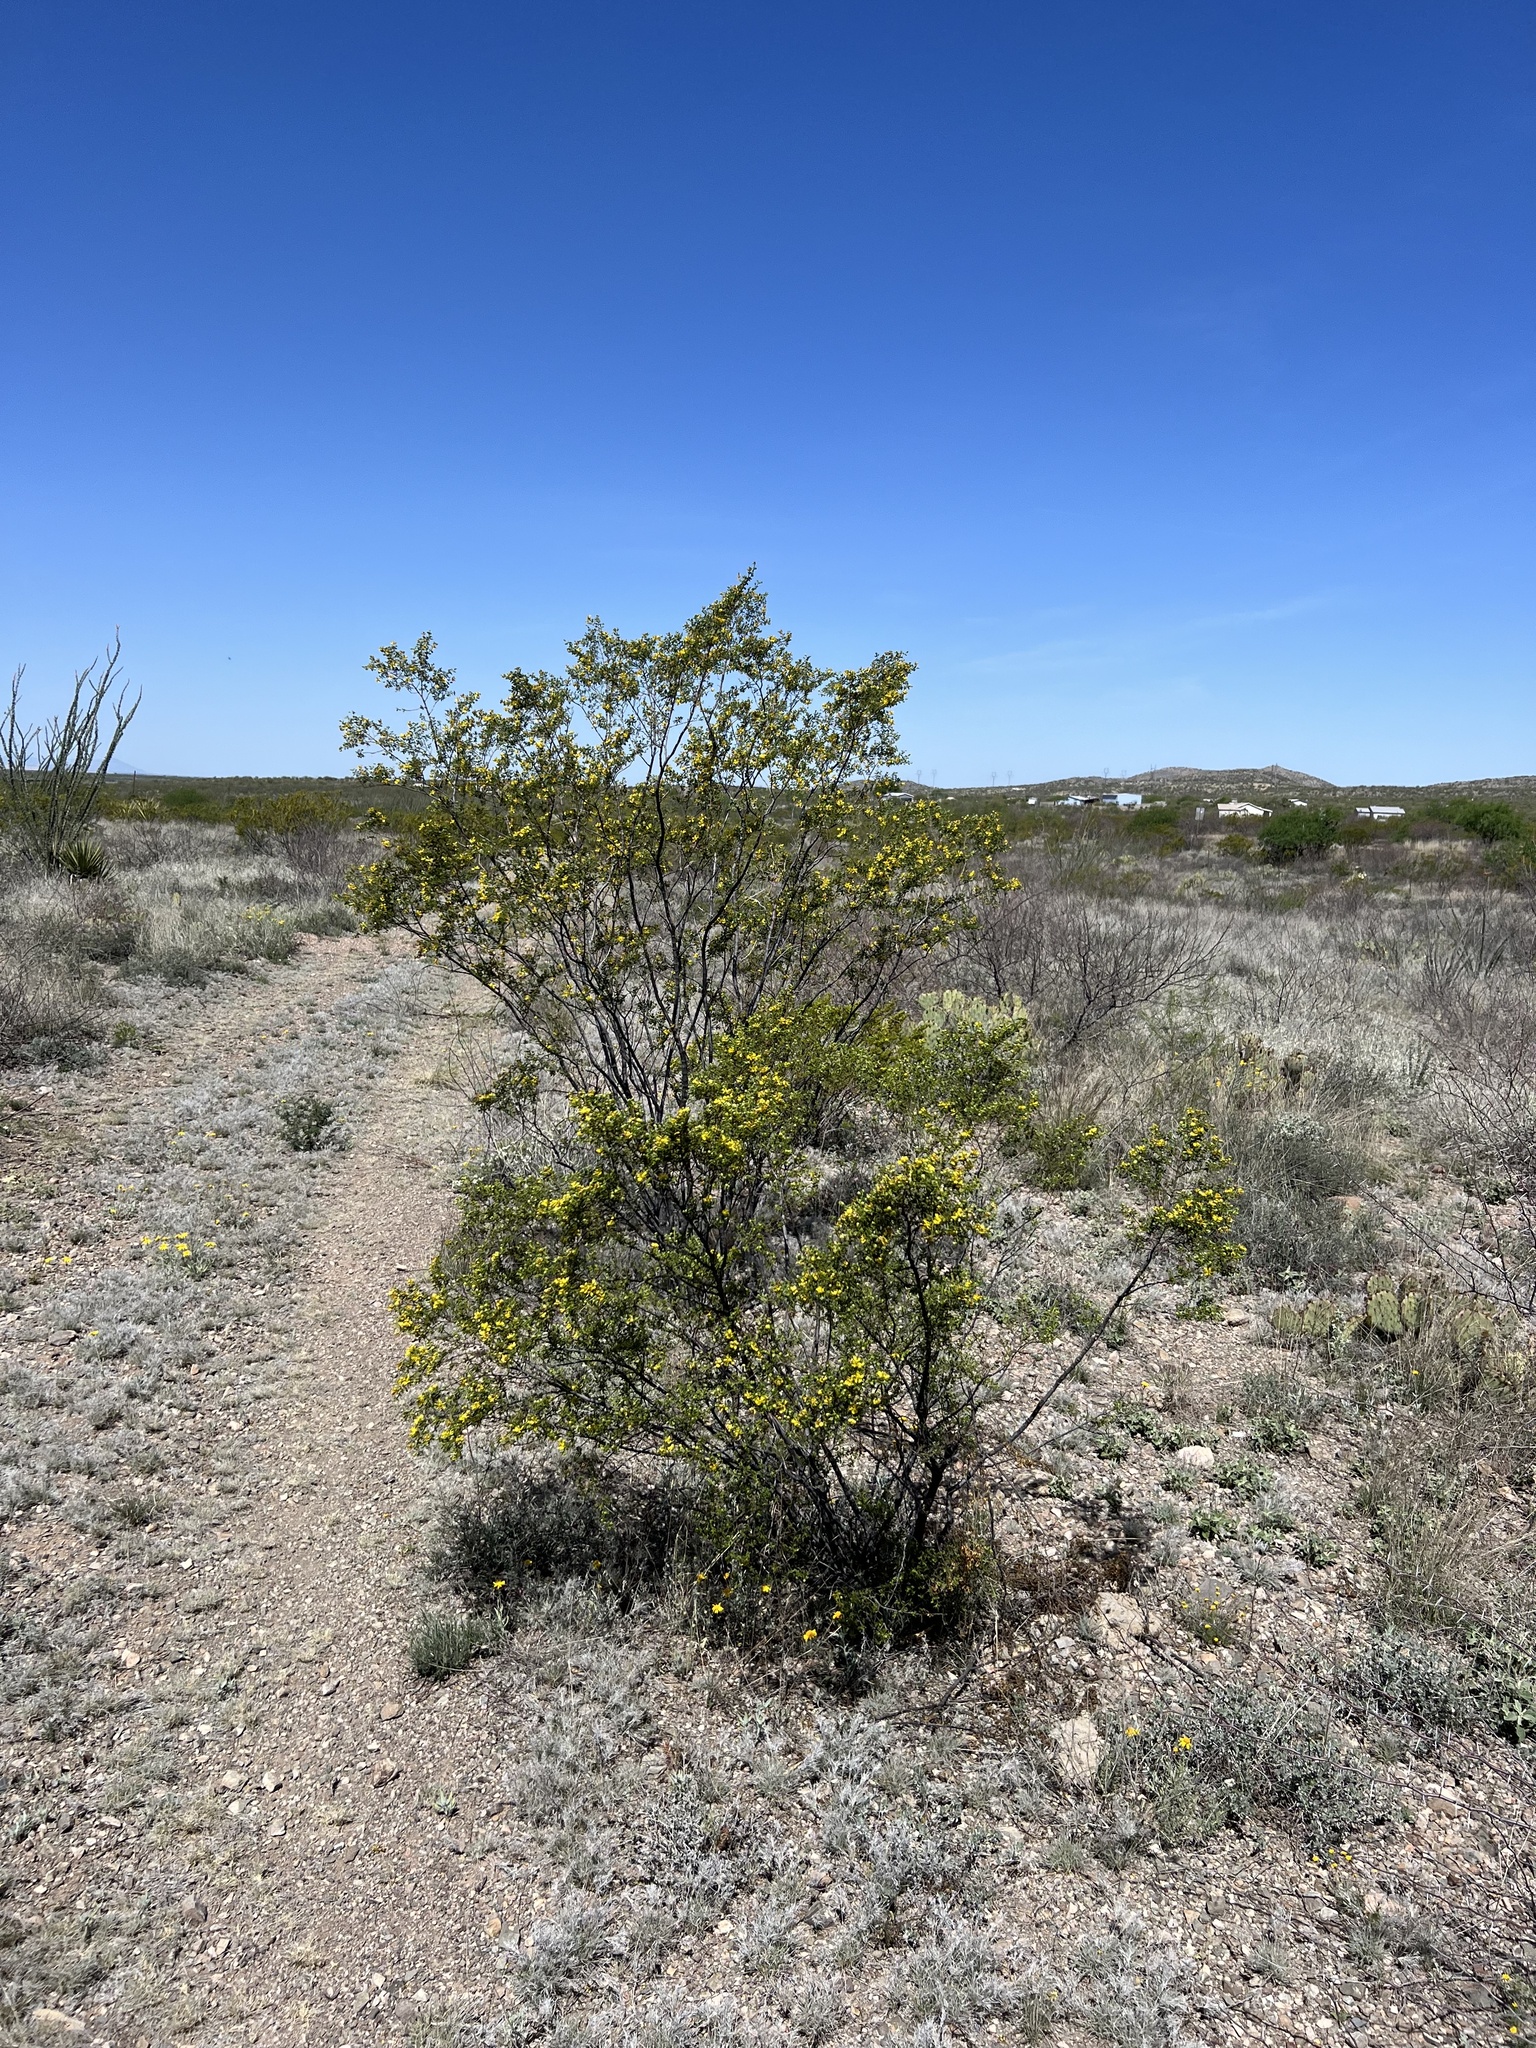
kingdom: Plantae
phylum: Tracheophyta
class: Magnoliopsida
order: Zygophyllales
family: Zygophyllaceae
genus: Larrea
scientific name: Larrea tridentata
